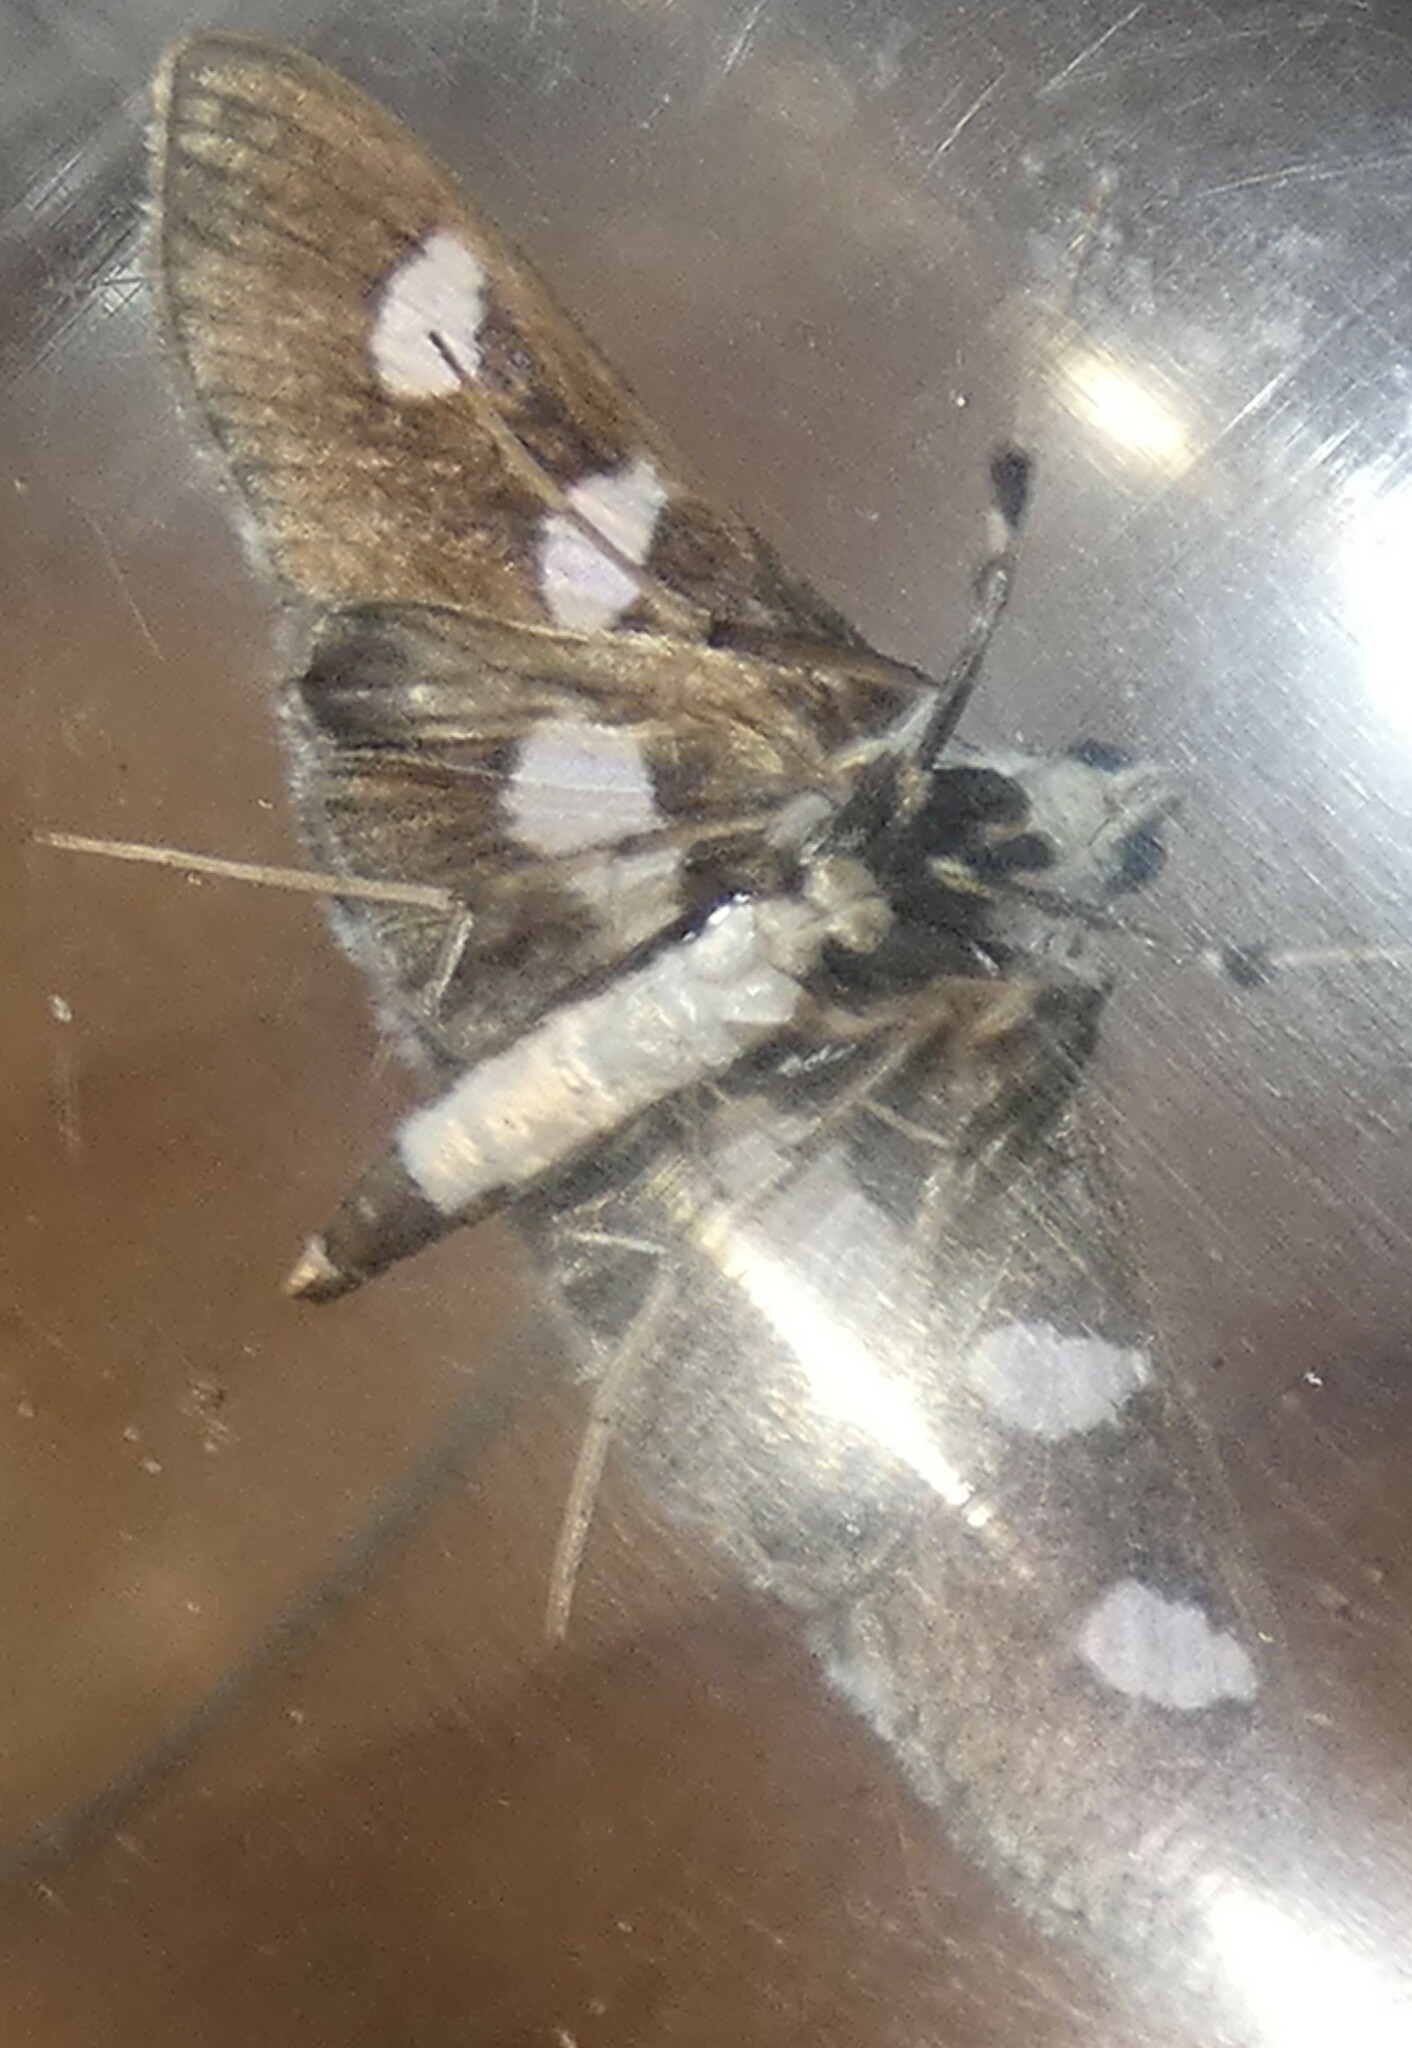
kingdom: Animalia
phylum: Arthropoda
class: Insecta
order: Lepidoptera
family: Crambidae
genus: Desmia
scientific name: Desmia funeralis
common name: Grape leaf folder moth
